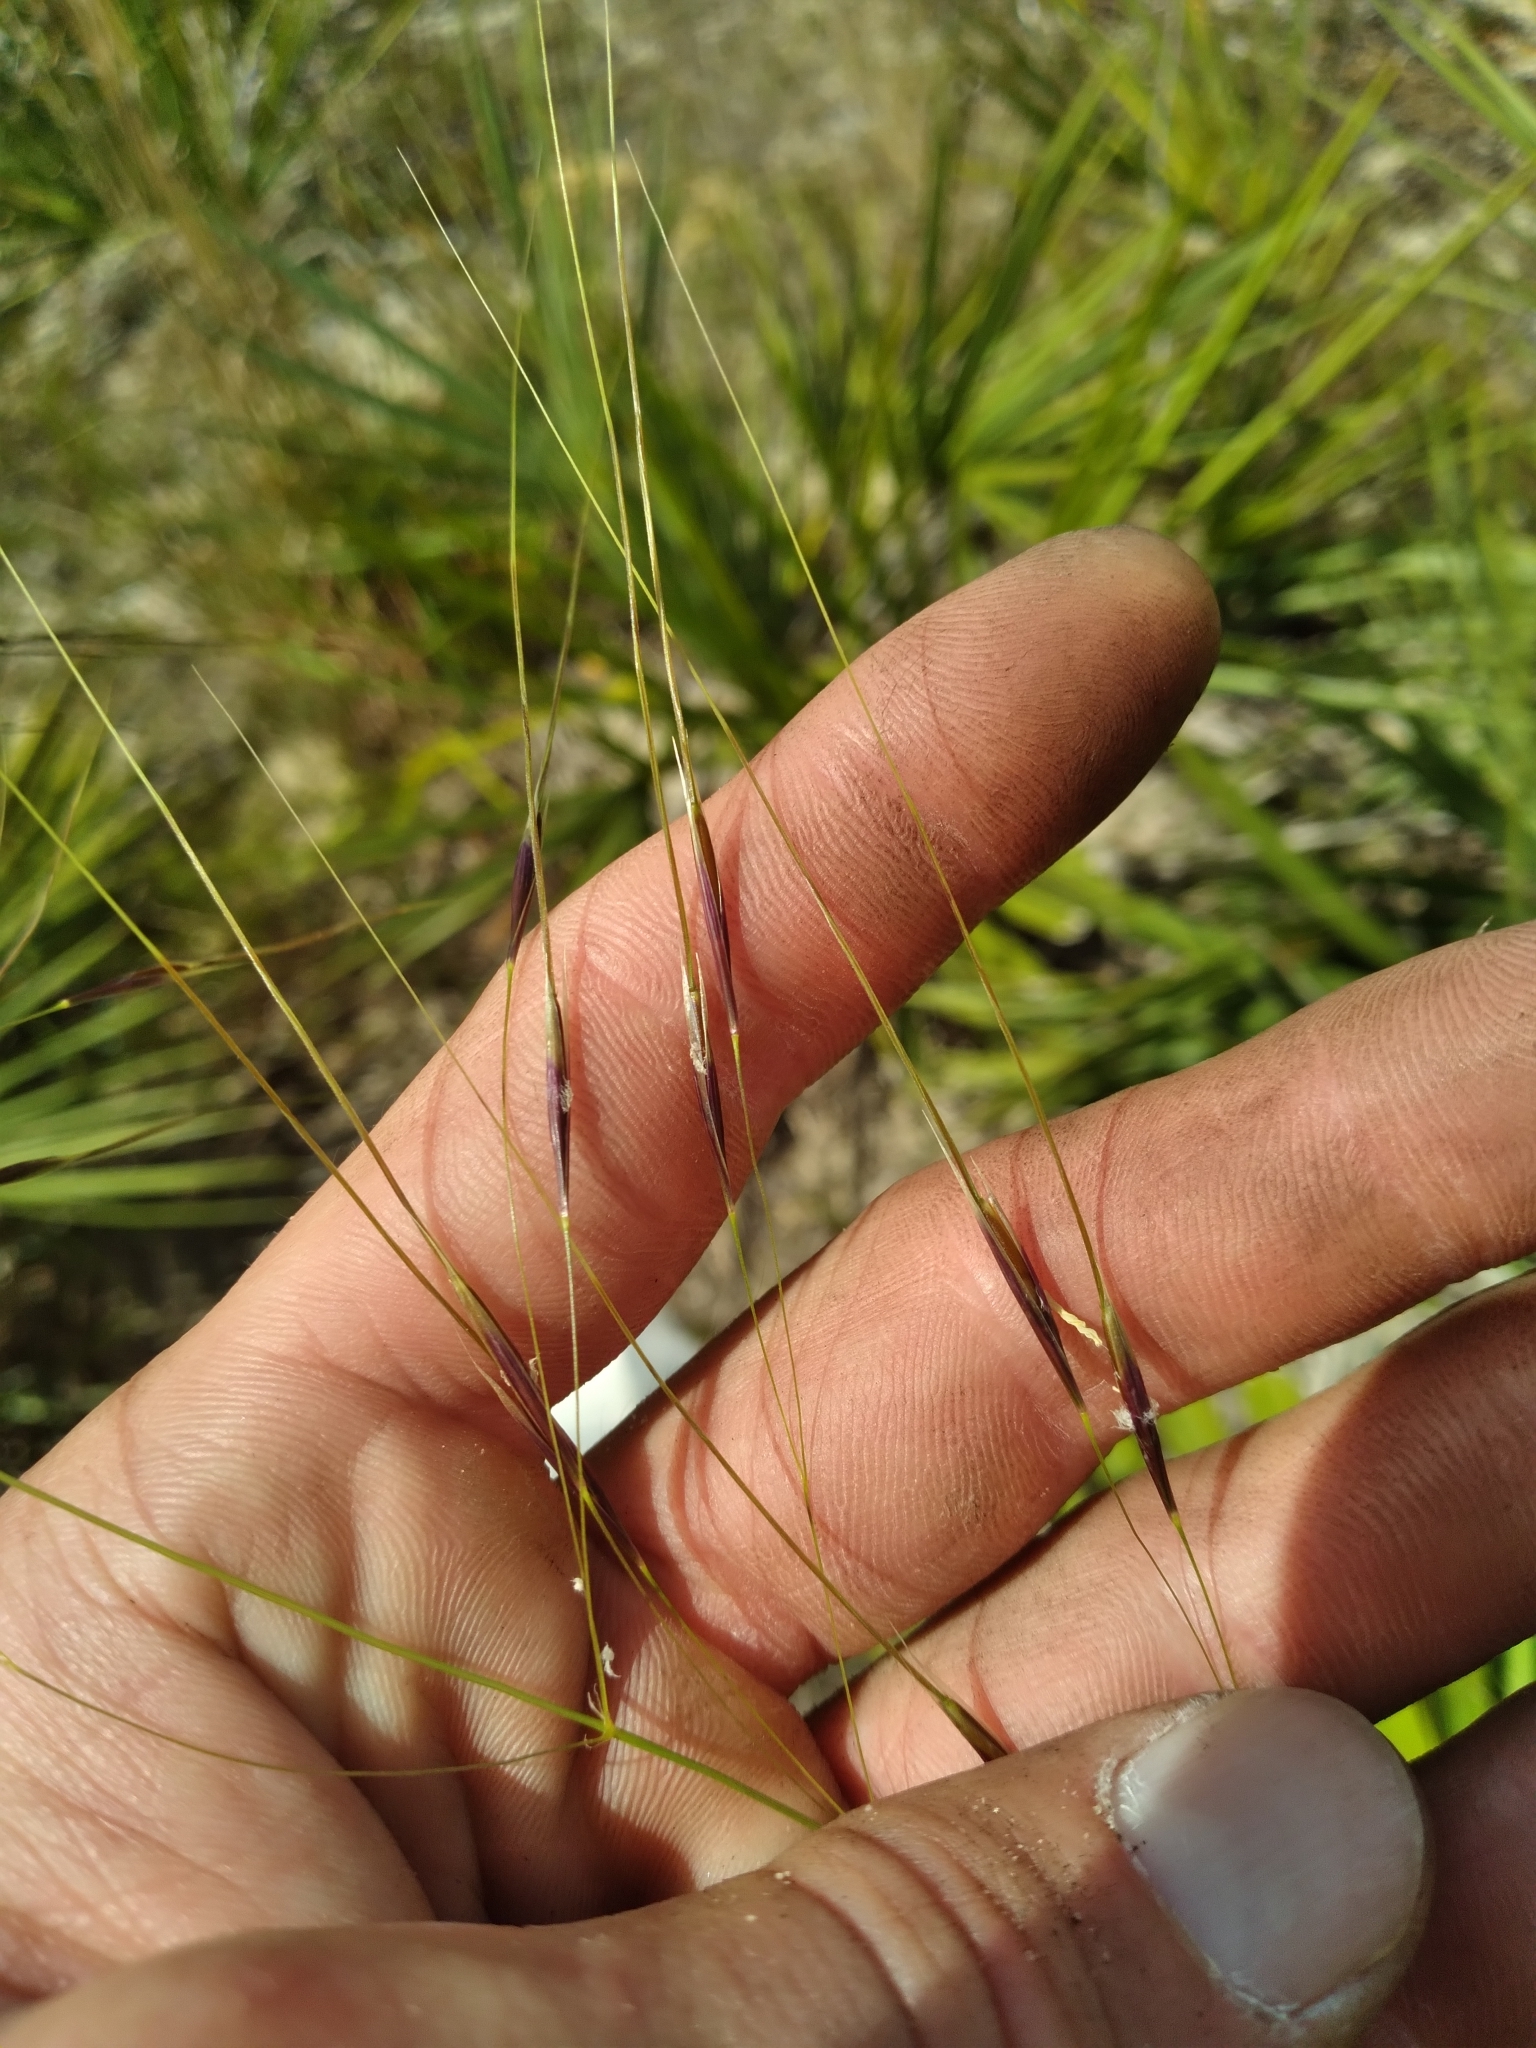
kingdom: Plantae
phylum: Tracheophyta
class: Liliopsida
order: Poales
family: Poaceae
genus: Piptochaetium
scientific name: Piptochaetium avenacioides
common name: Florida needlegrass
